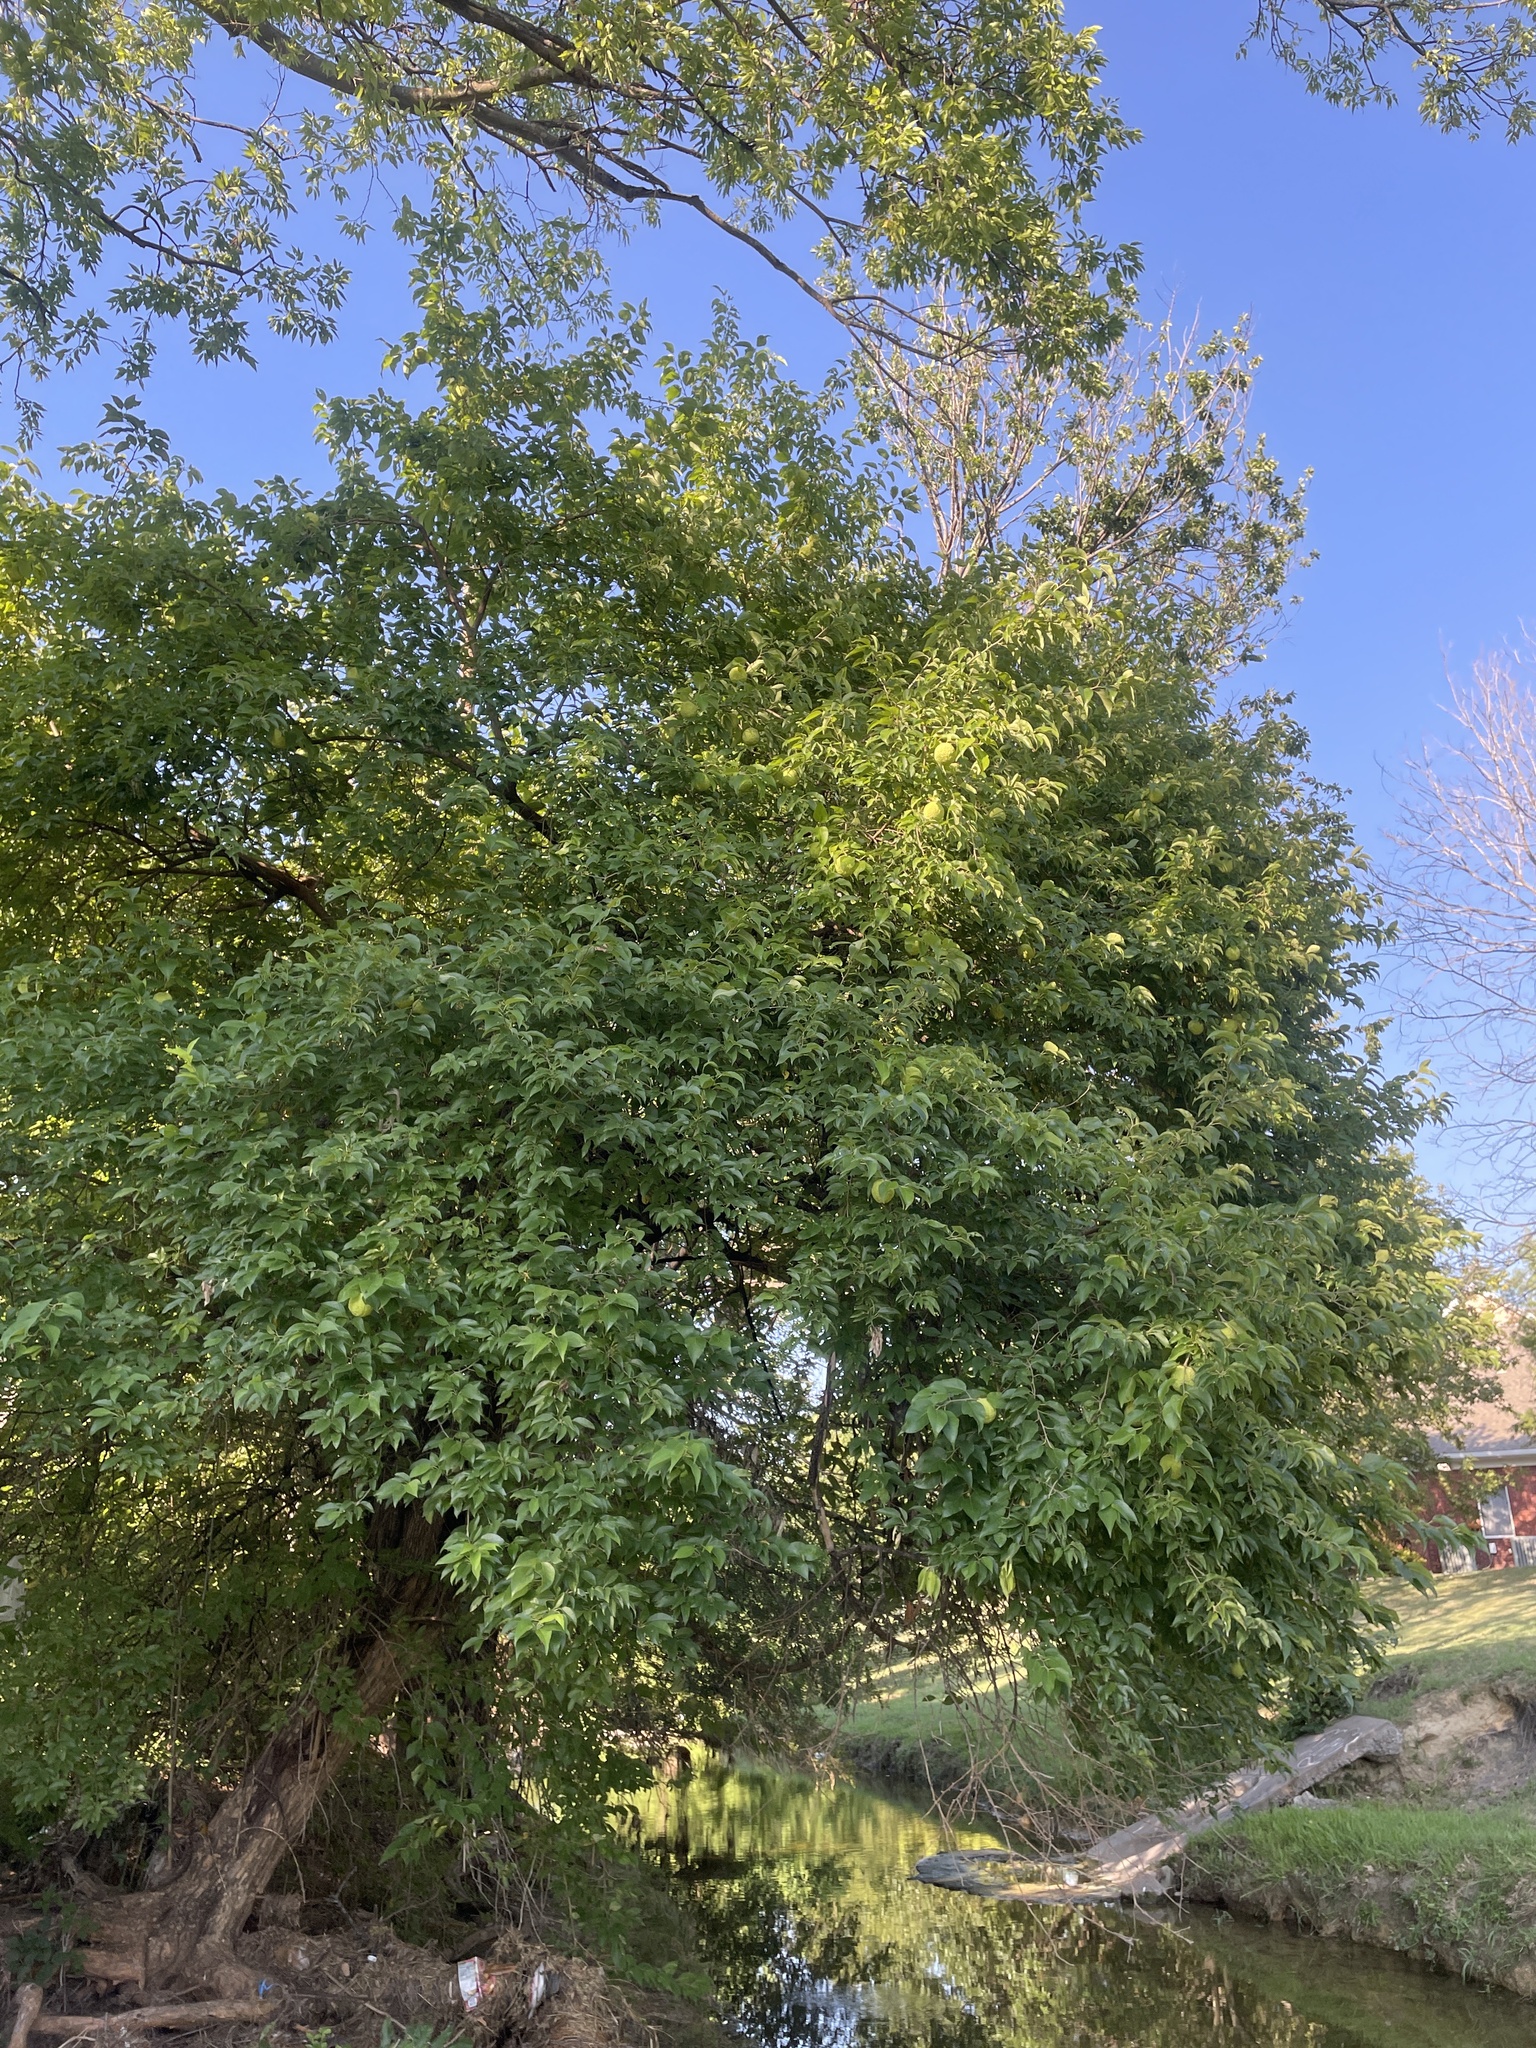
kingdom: Plantae
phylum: Tracheophyta
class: Magnoliopsida
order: Rosales
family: Moraceae
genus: Maclura
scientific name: Maclura pomifera
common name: Osage-orange
